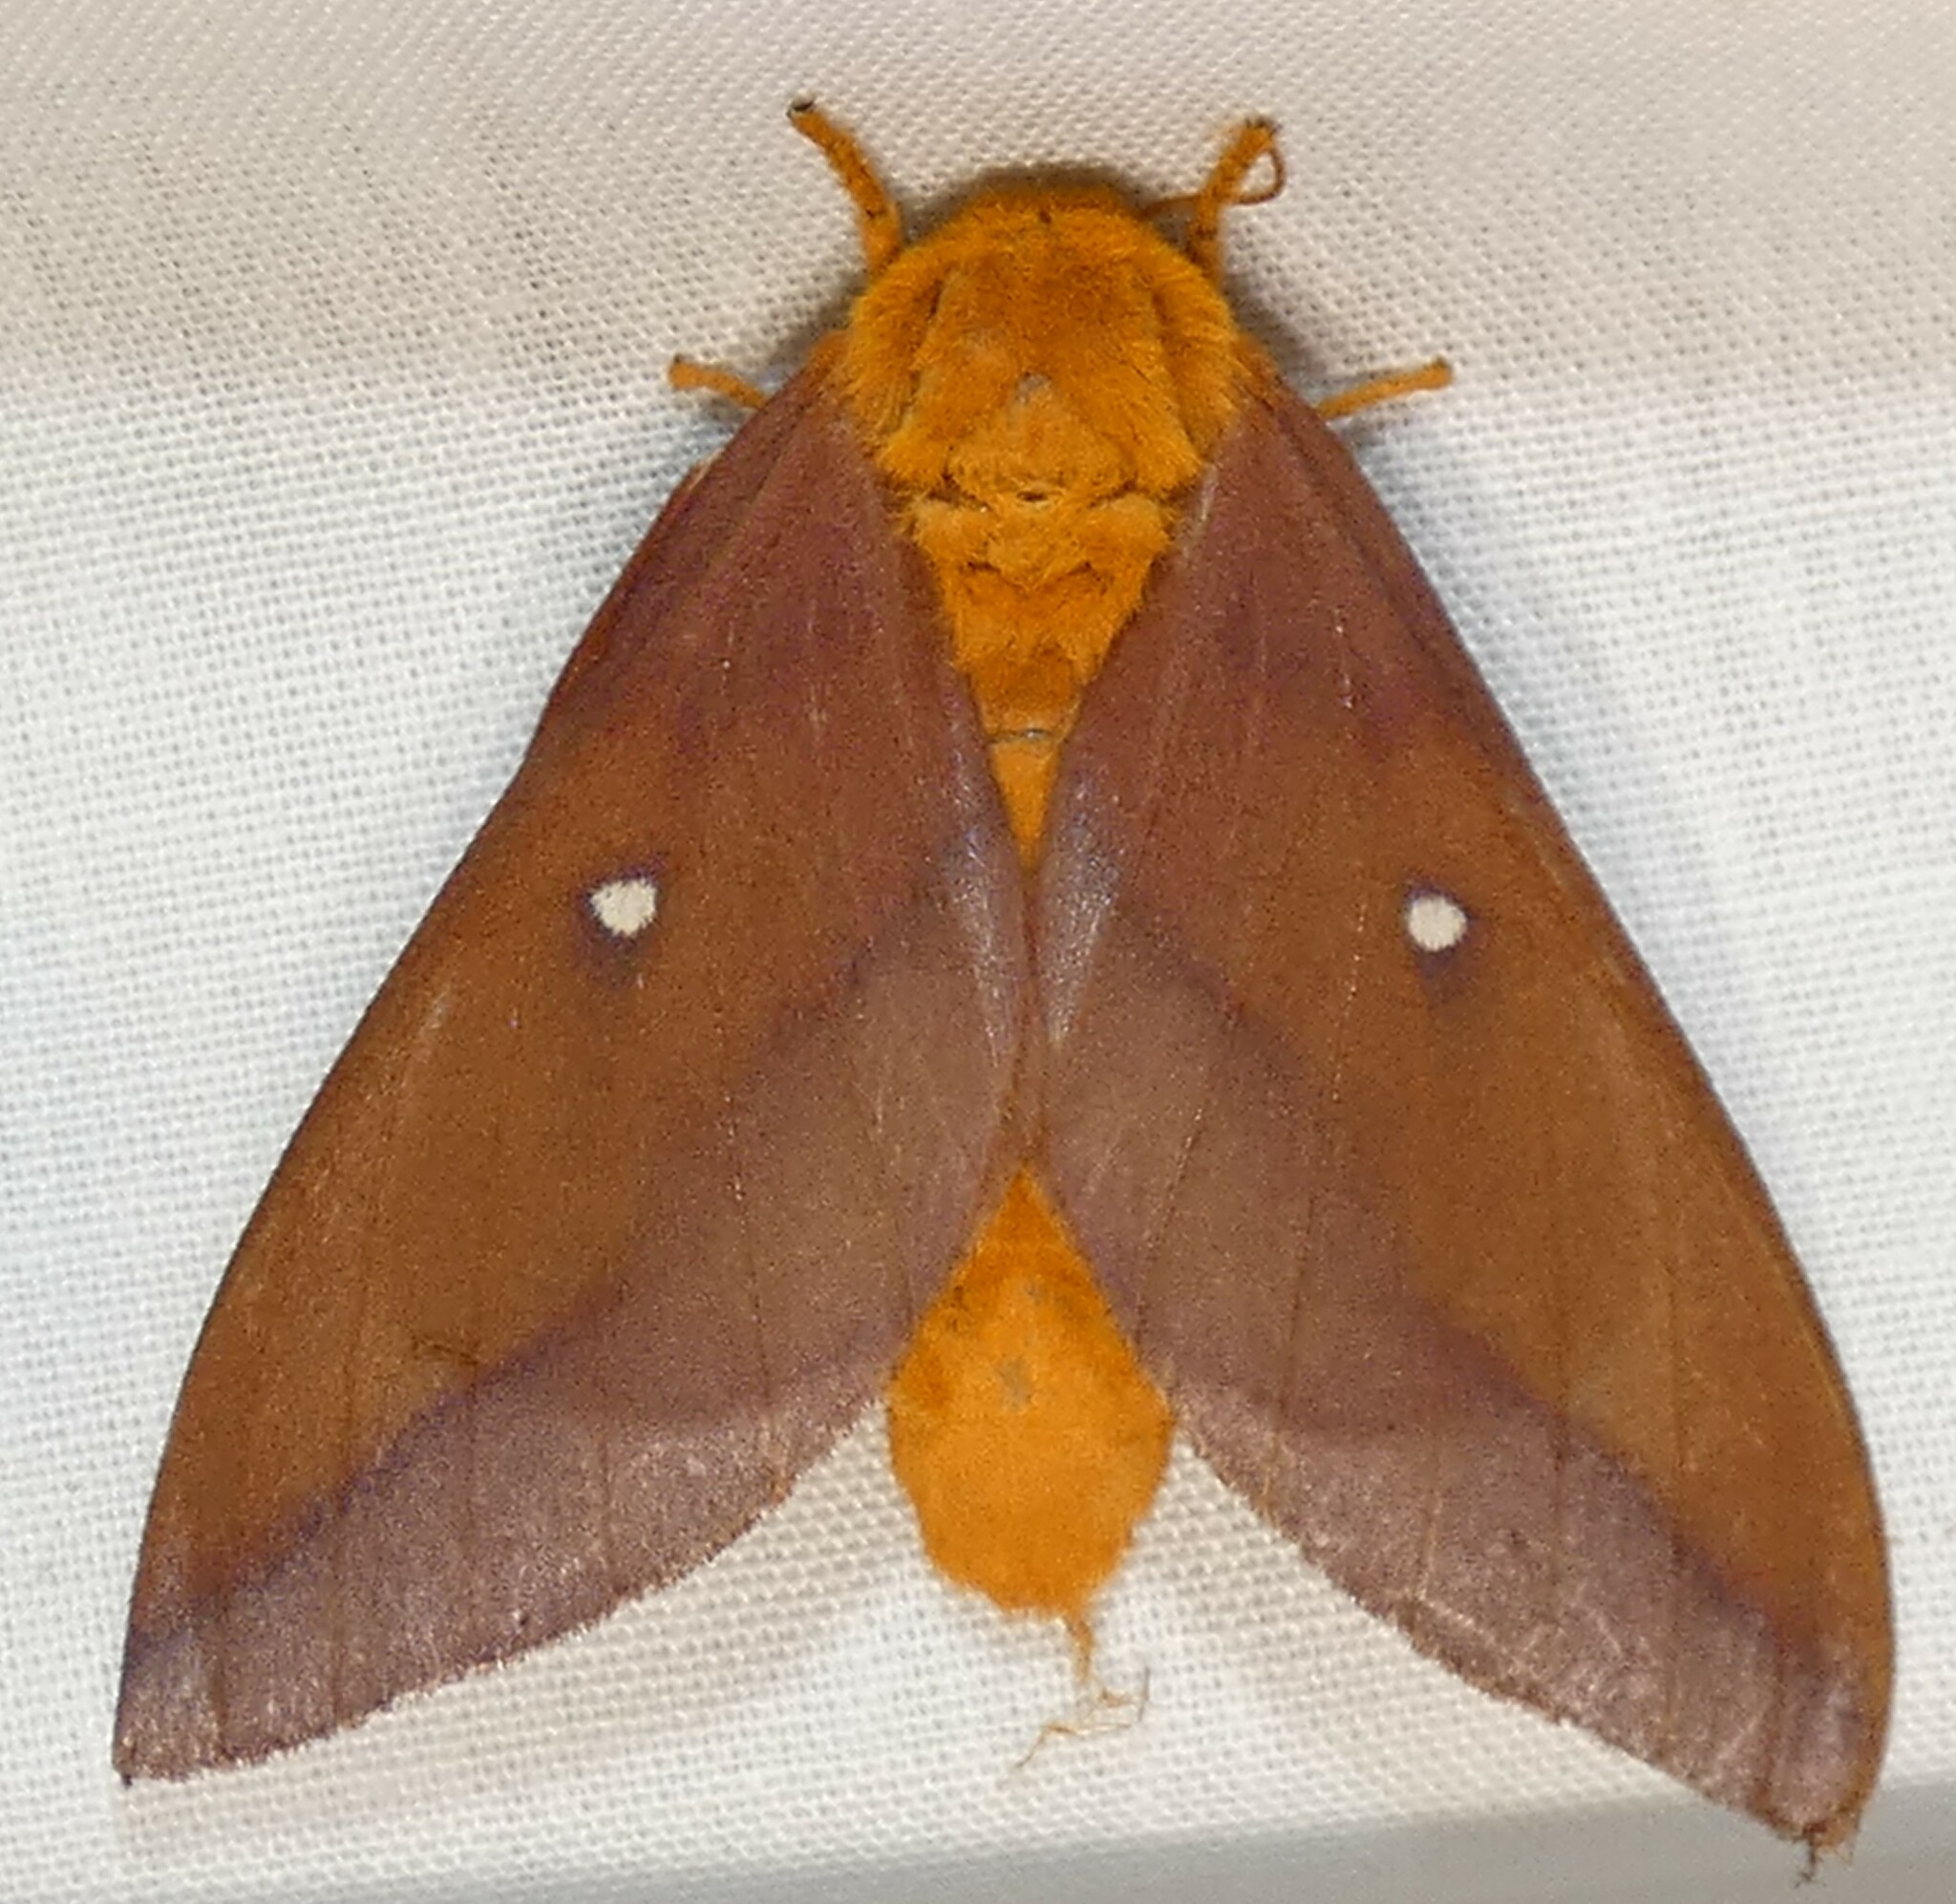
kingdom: Animalia
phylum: Arthropoda
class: Insecta
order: Lepidoptera
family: Saturniidae
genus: Anisota
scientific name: Anisota virginiensis
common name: Pink striped oakworm moth
